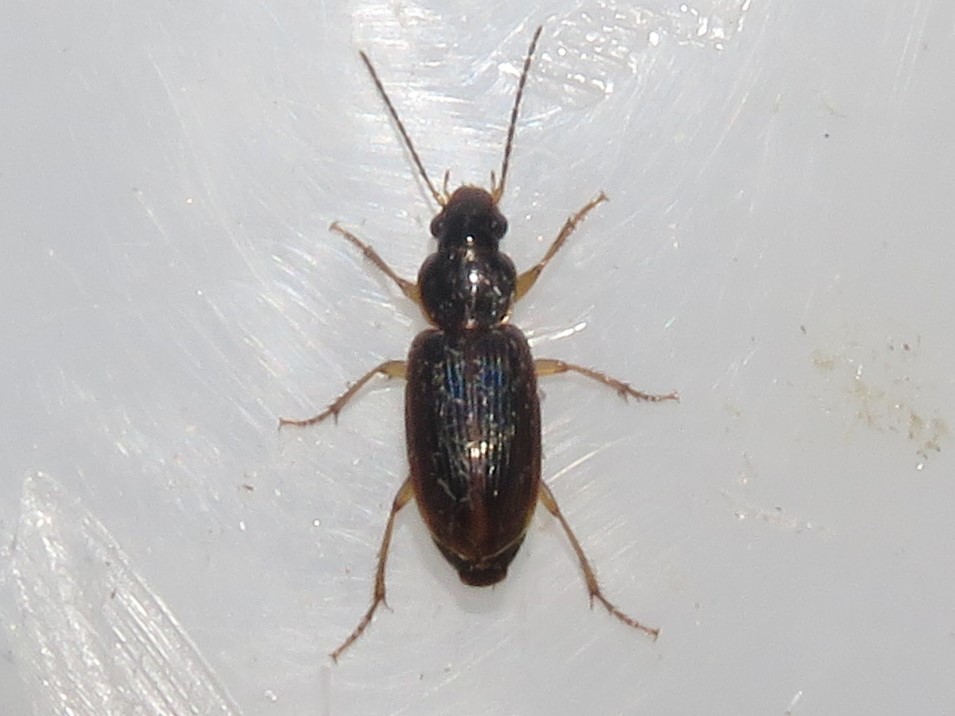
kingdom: Animalia
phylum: Arthropoda
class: Insecta
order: Coleoptera
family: Carabidae
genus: Stenolophus
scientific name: Stenolophus ochropezus
